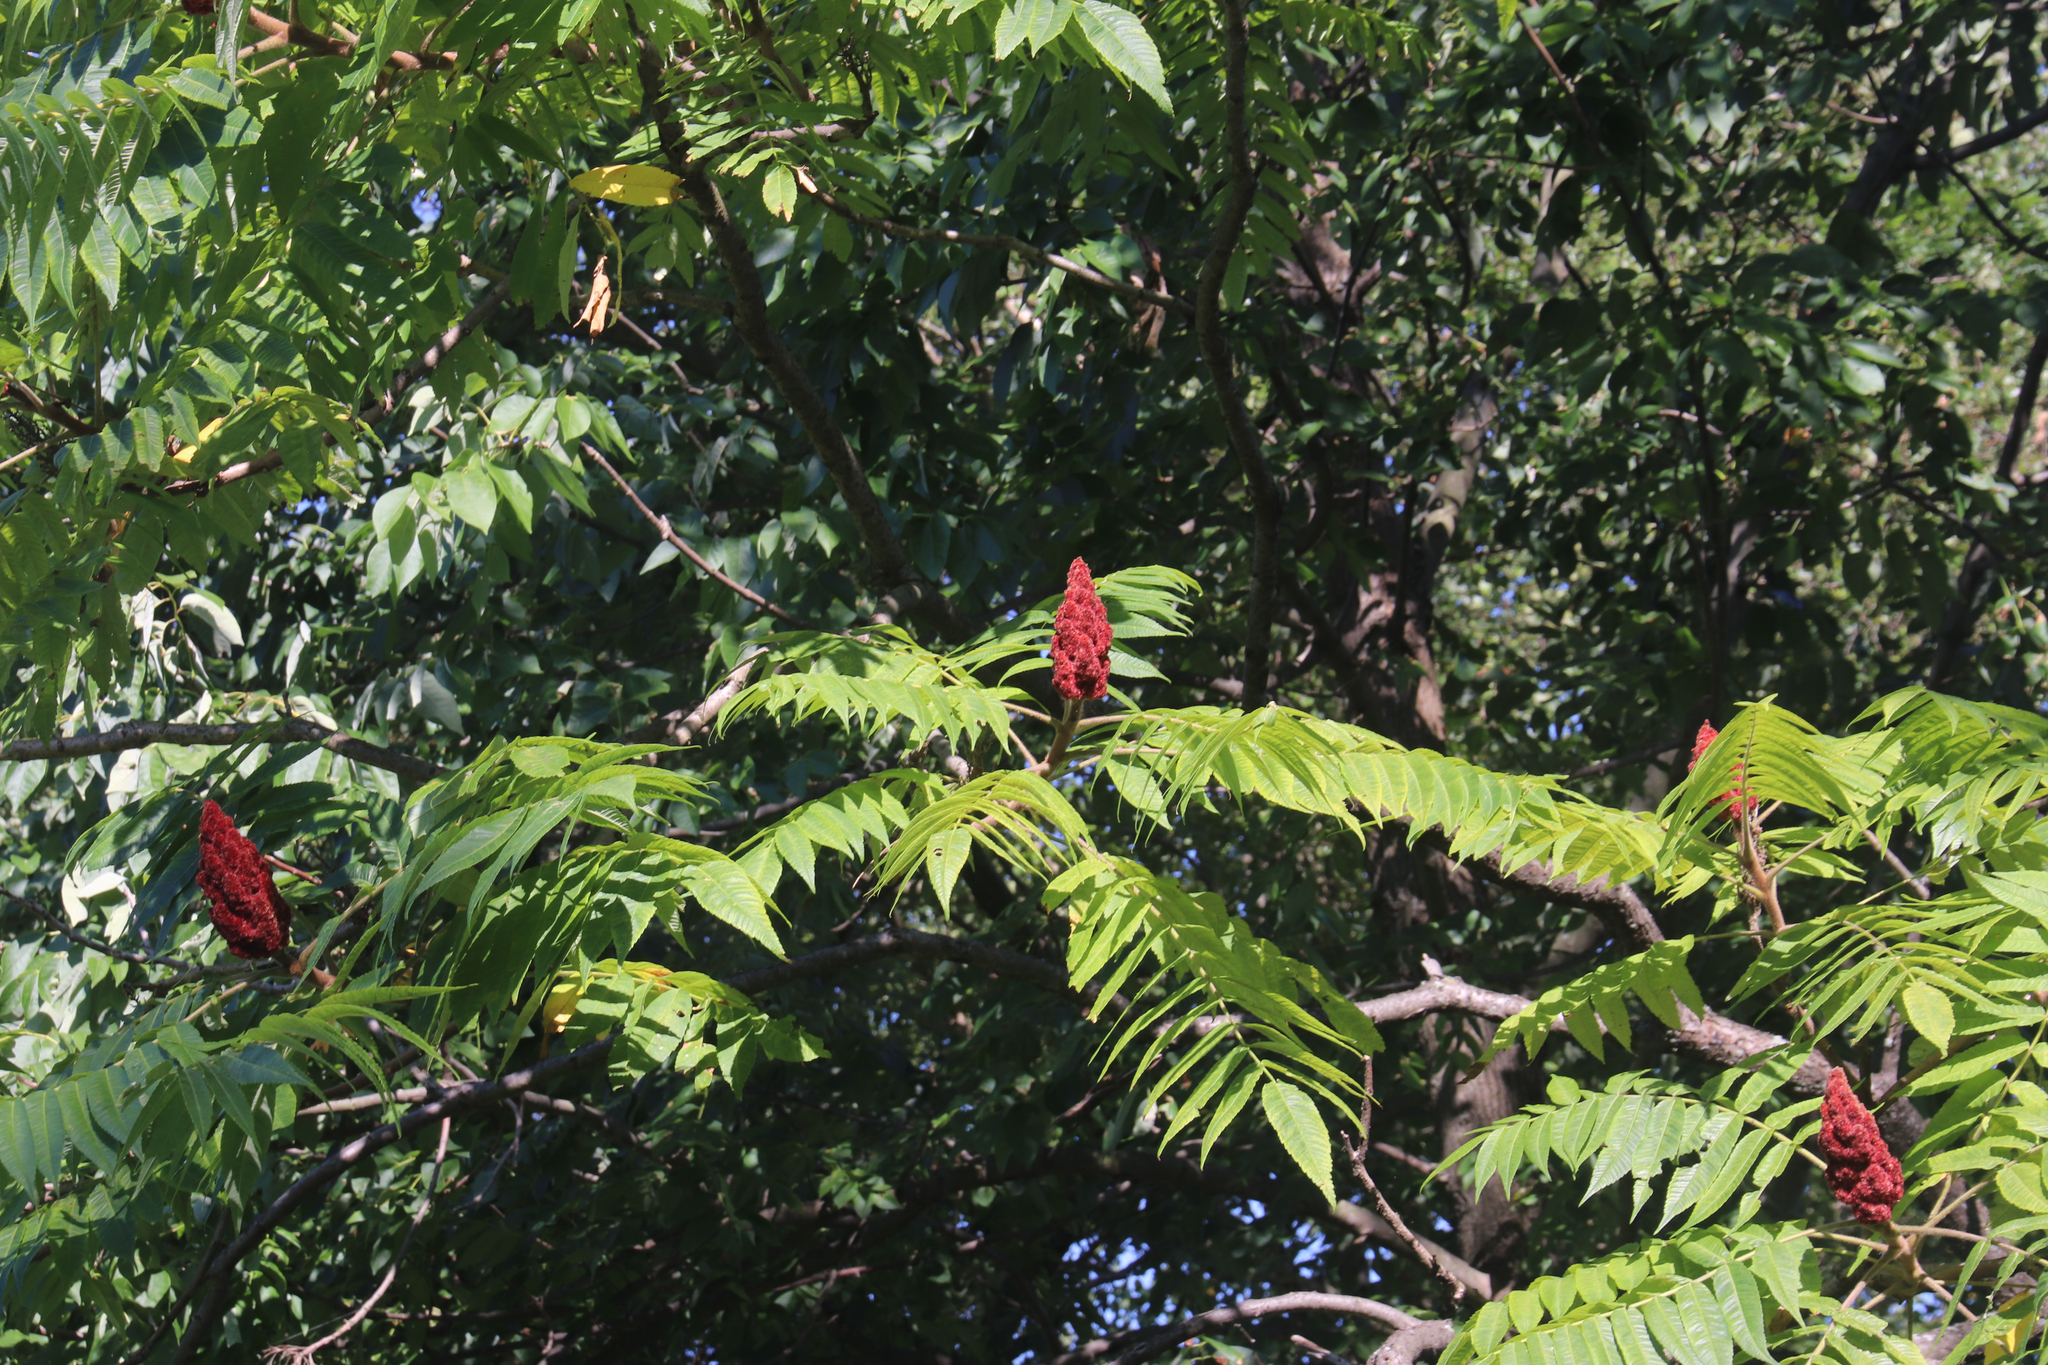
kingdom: Plantae
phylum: Tracheophyta
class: Magnoliopsida
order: Sapindales
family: Anacardiaceae
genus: Rhus
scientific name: Rhus typhina
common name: Staghorn sumac
